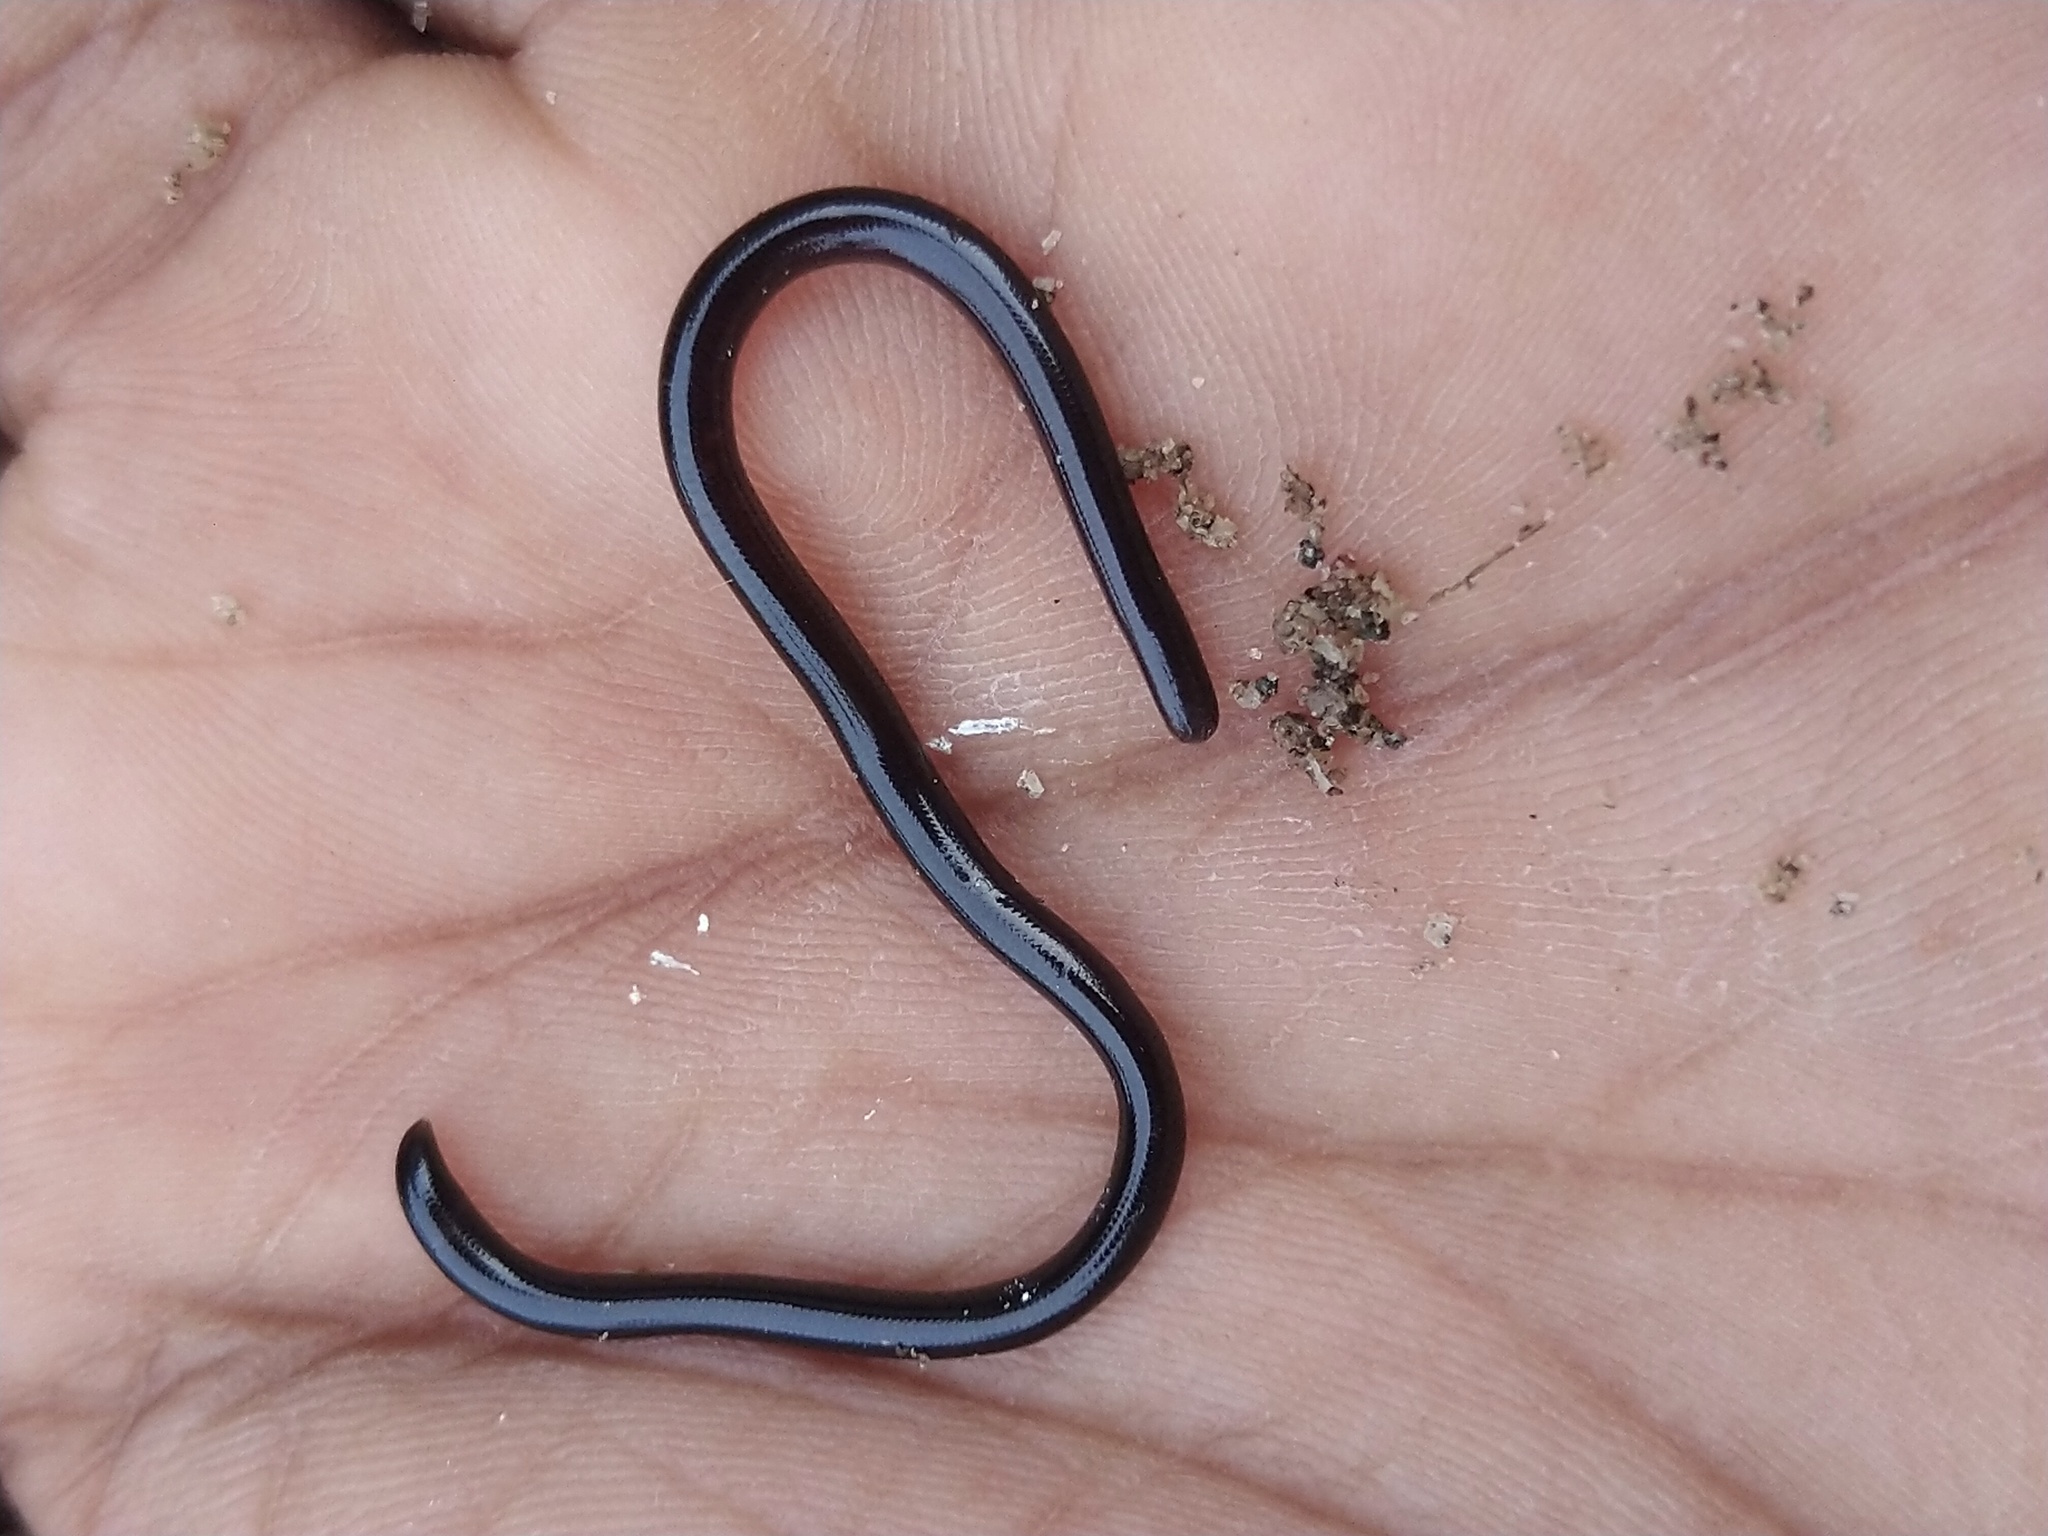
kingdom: Animalia
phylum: Chordata
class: Squamata
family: Typhlopidae
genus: Indotyphlops
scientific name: Indotyphlops braminus
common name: Brahminy blindsnake
